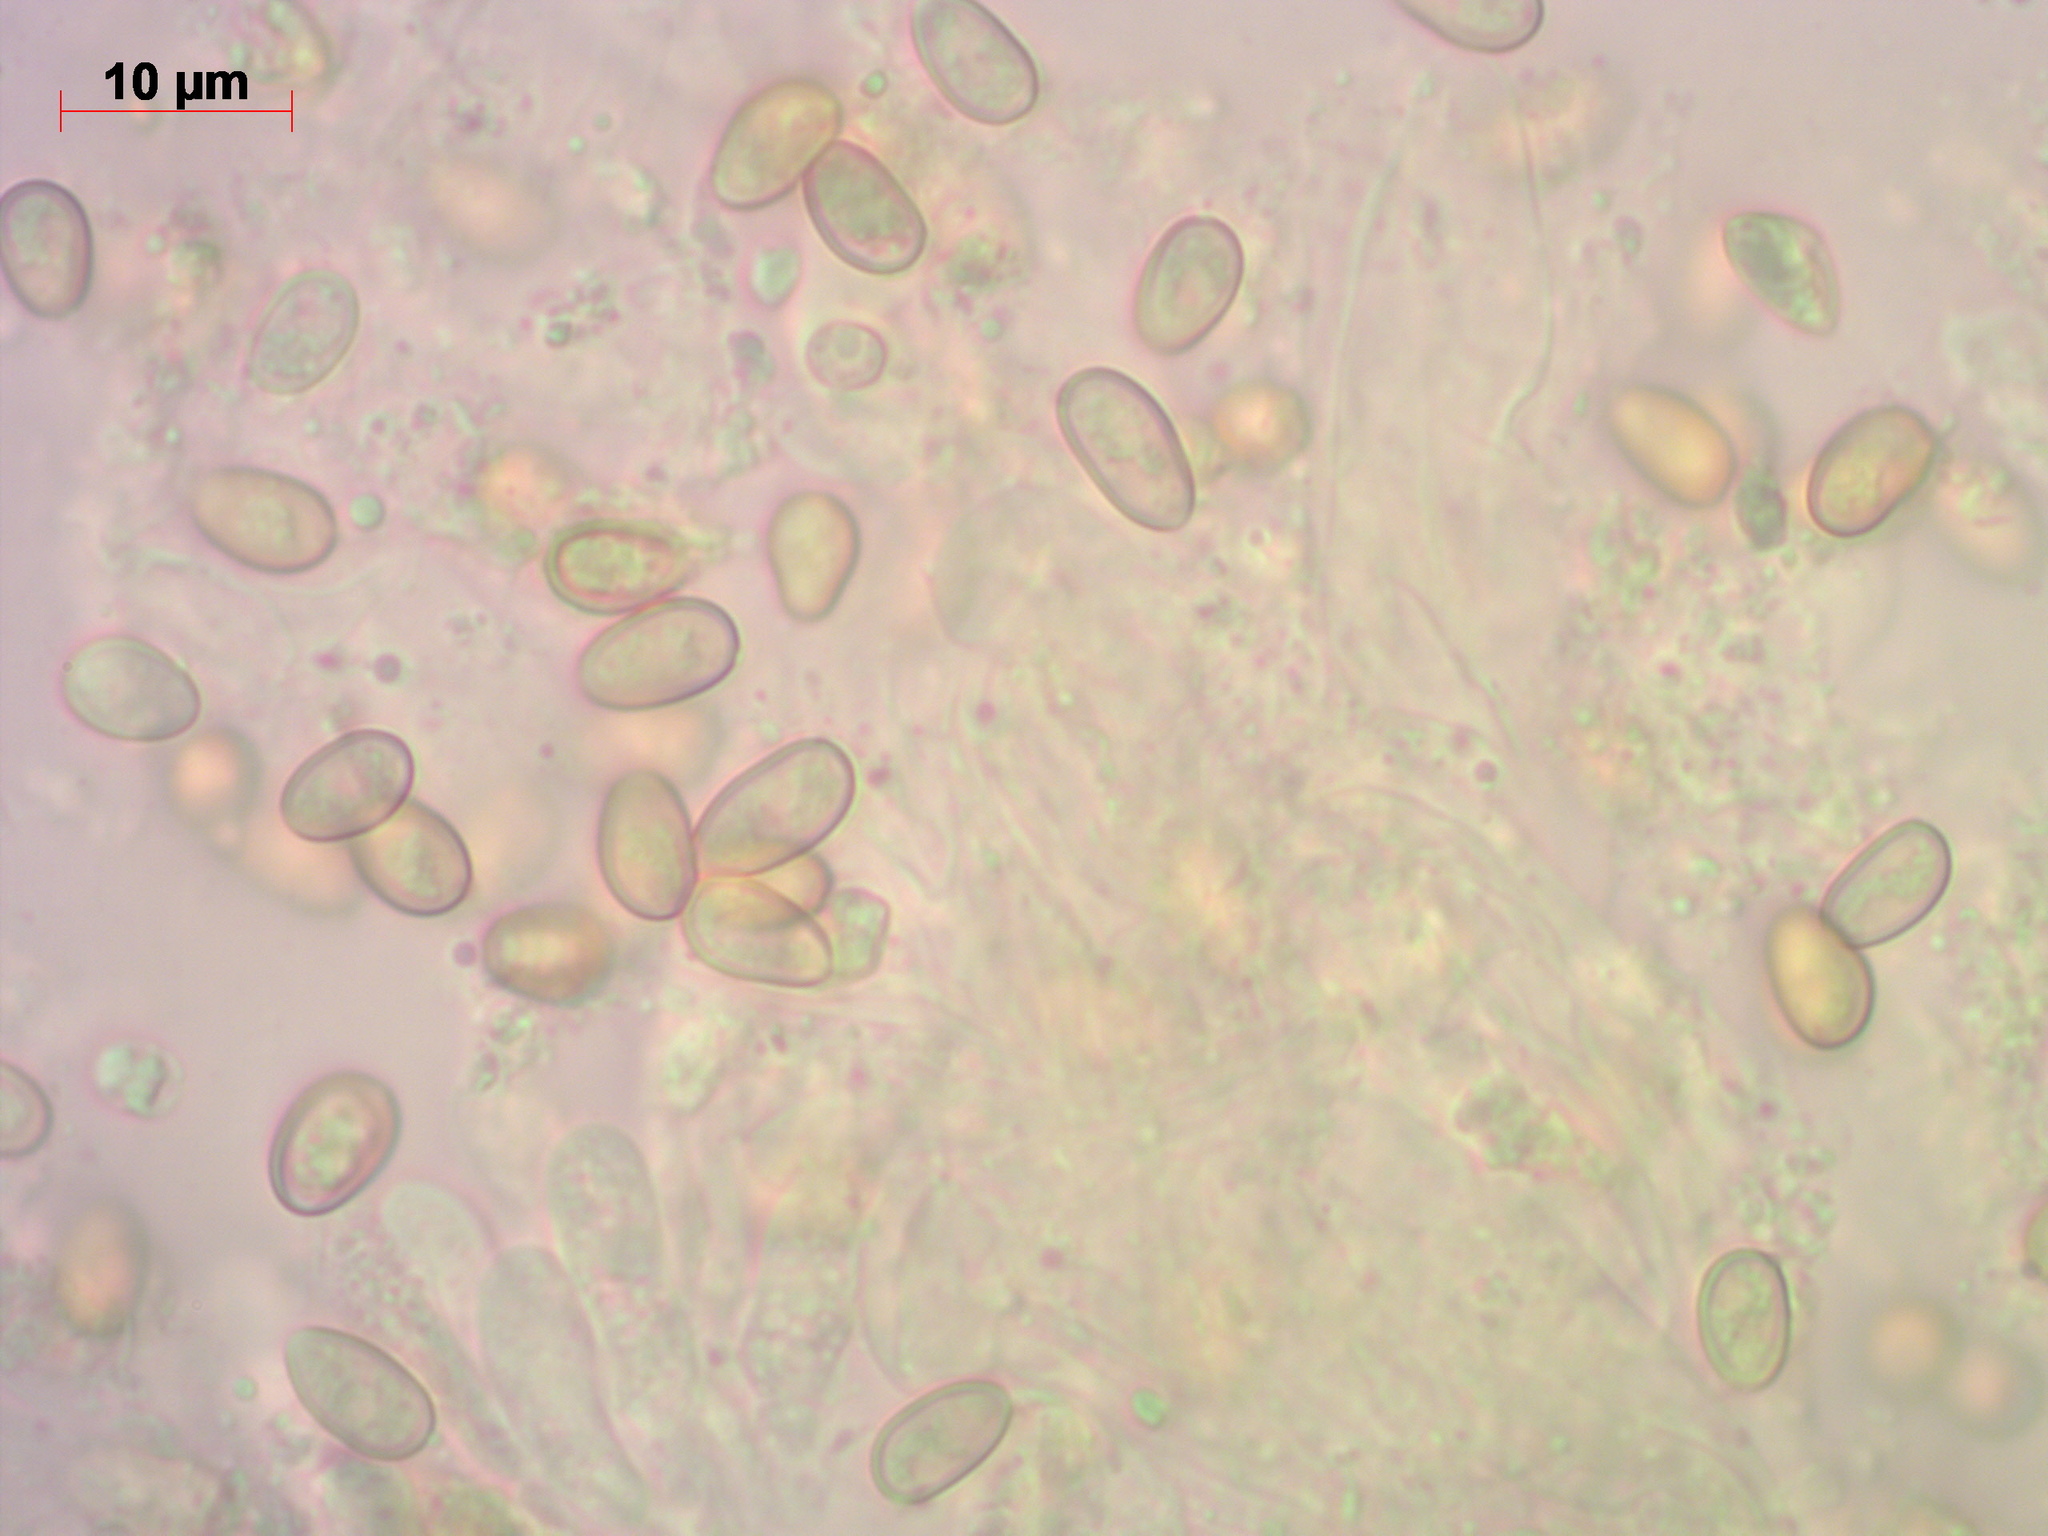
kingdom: Fungi
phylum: Basidiomycota
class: Agaricomycetes
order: Agaricales
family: Strophariaceae
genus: Pholiota
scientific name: Pholiota squarrosa
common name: Shaggy pholiota
